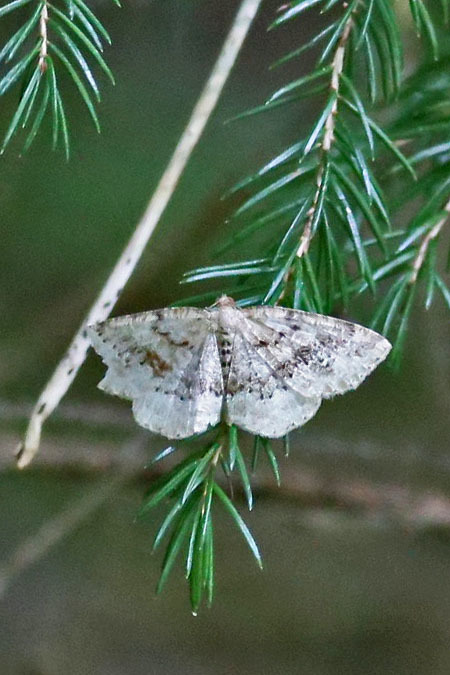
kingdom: Animalia
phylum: Arthropoda
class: Insecta
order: Lepidoptera
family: Geometridae
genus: Homochlodes
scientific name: Homochlodes fritillaria
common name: Pale homochlodes
